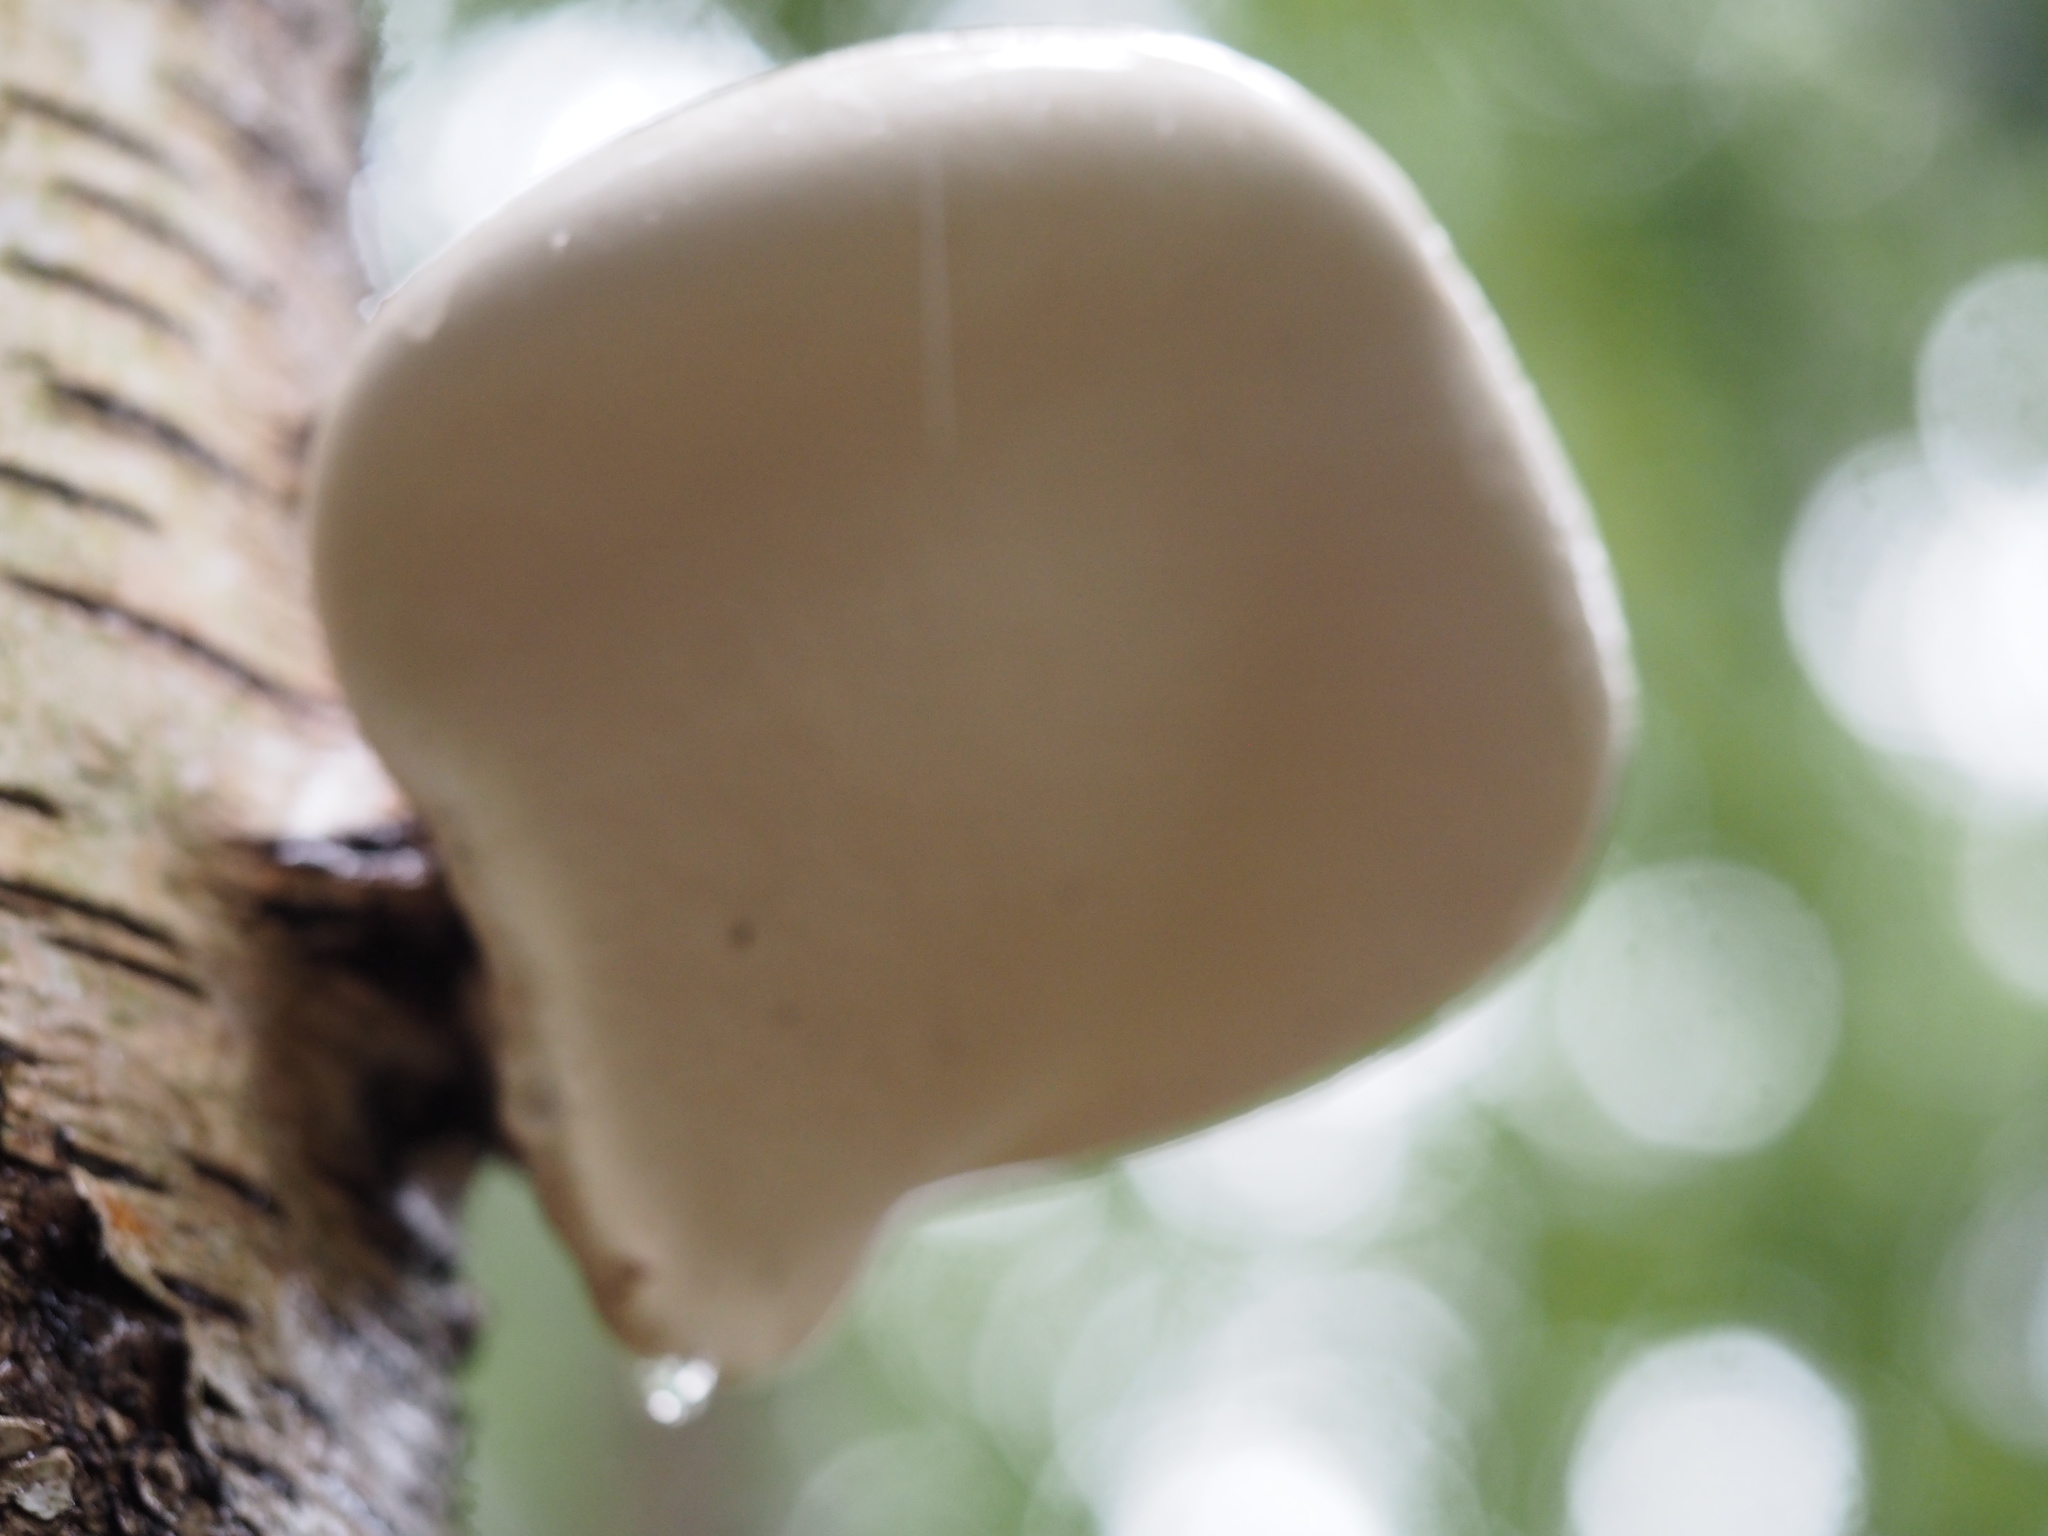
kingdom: Fungi
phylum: Basidiomycota
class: Agaricomycetes
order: Polyporales
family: Fomitopsidaceae
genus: Fomitopsis
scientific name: Fomitopsis betulina
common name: Birch polypore
